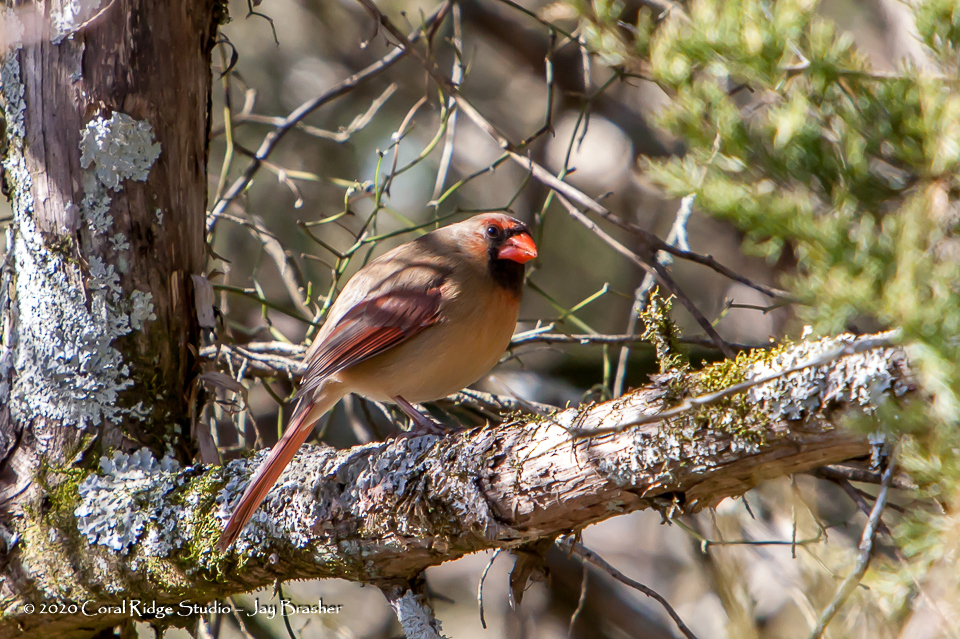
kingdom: Animalia
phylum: Chordata
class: Aves
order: Passeriformes
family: Cardinalidae
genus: Cardinalis
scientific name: Cardinalis cardinalis
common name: Northern cardinal
